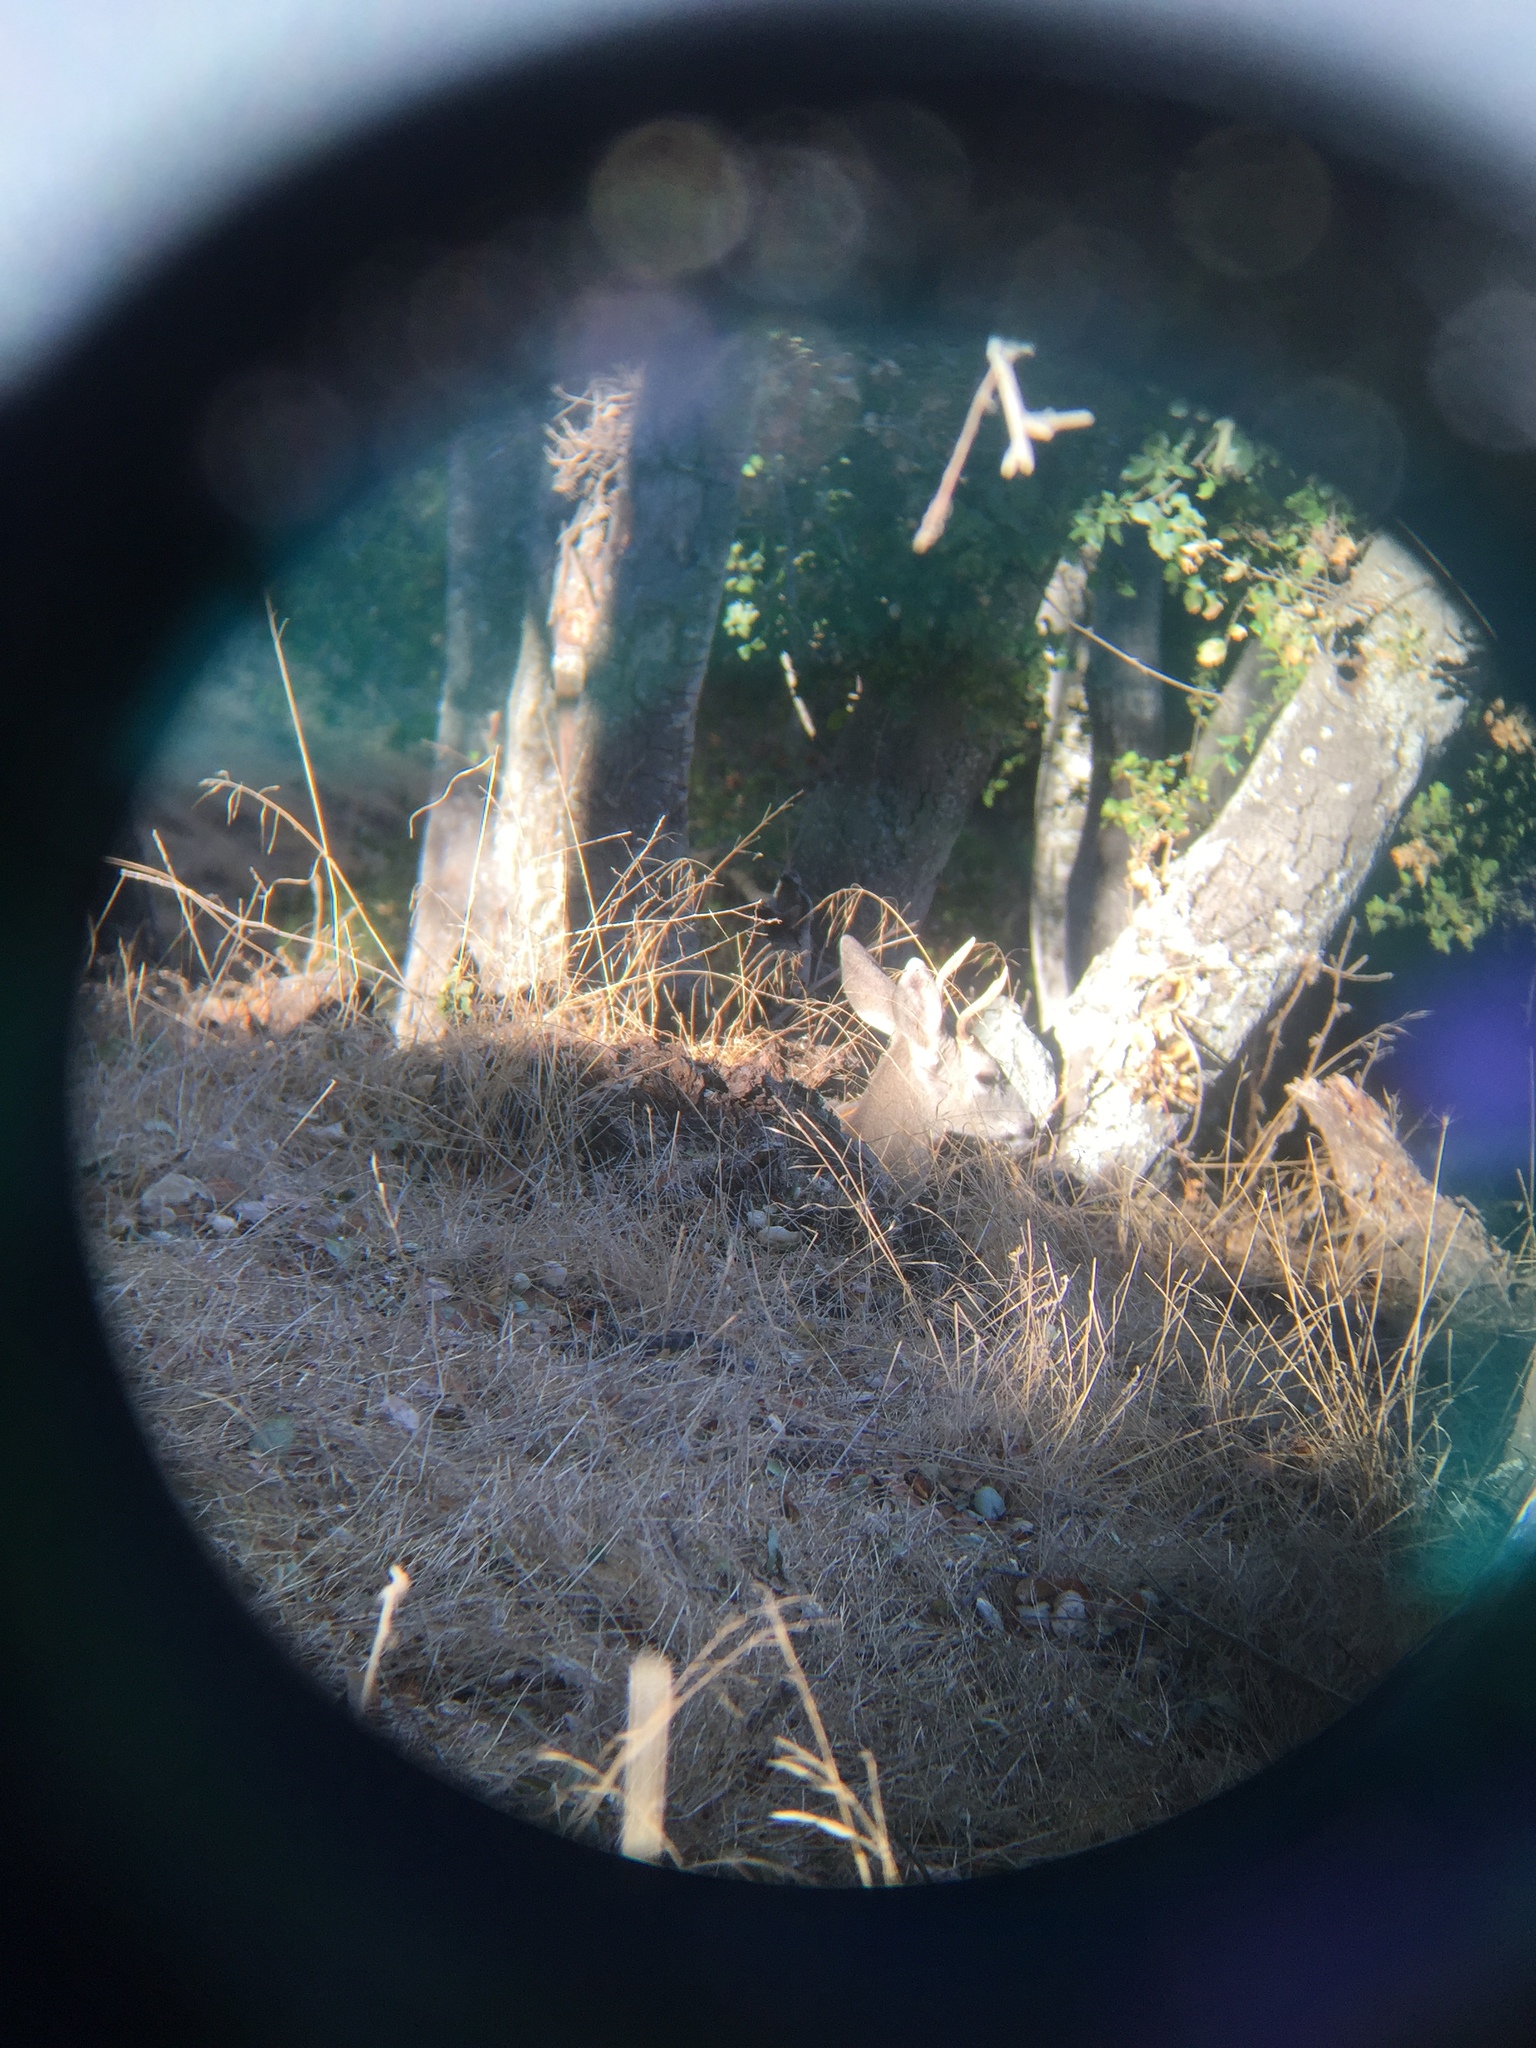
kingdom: Animalia
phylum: Chordata
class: Mammalia
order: Artiodactyla
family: Cervidae
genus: Odocoileus
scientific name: Odocoileus hemionus
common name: Mule deer
